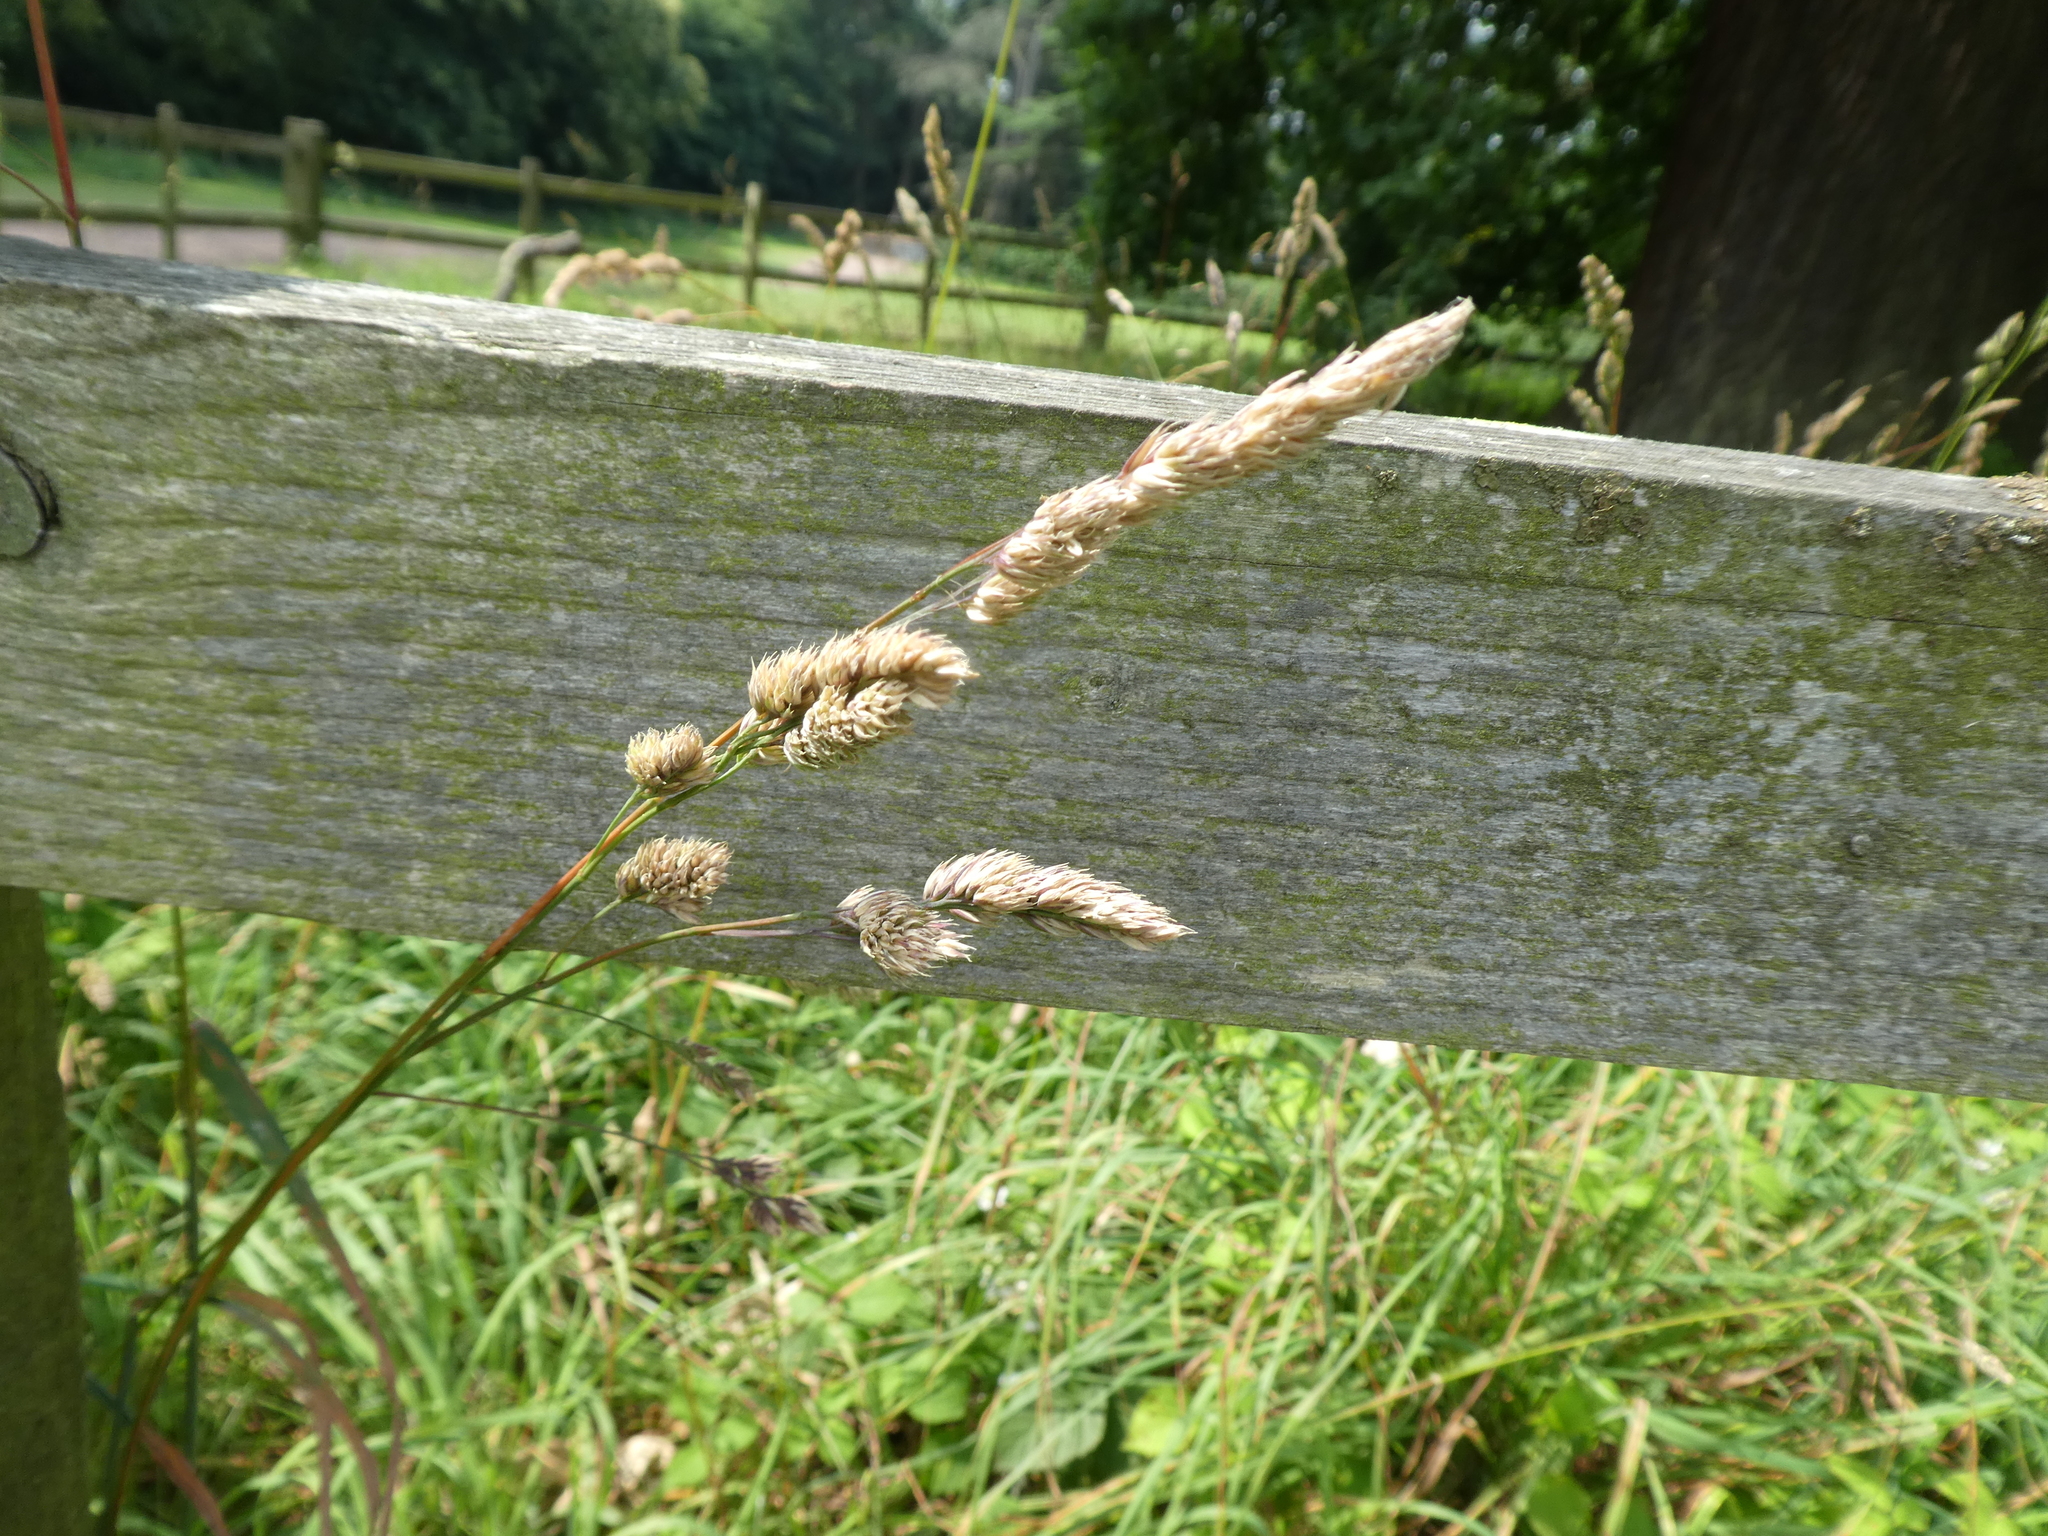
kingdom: Plantae
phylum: Tracheophyta
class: Liliopsida
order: Poales
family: Poaceae
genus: Dactylis
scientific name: Dactylis glomerata
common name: Orchardgrass
